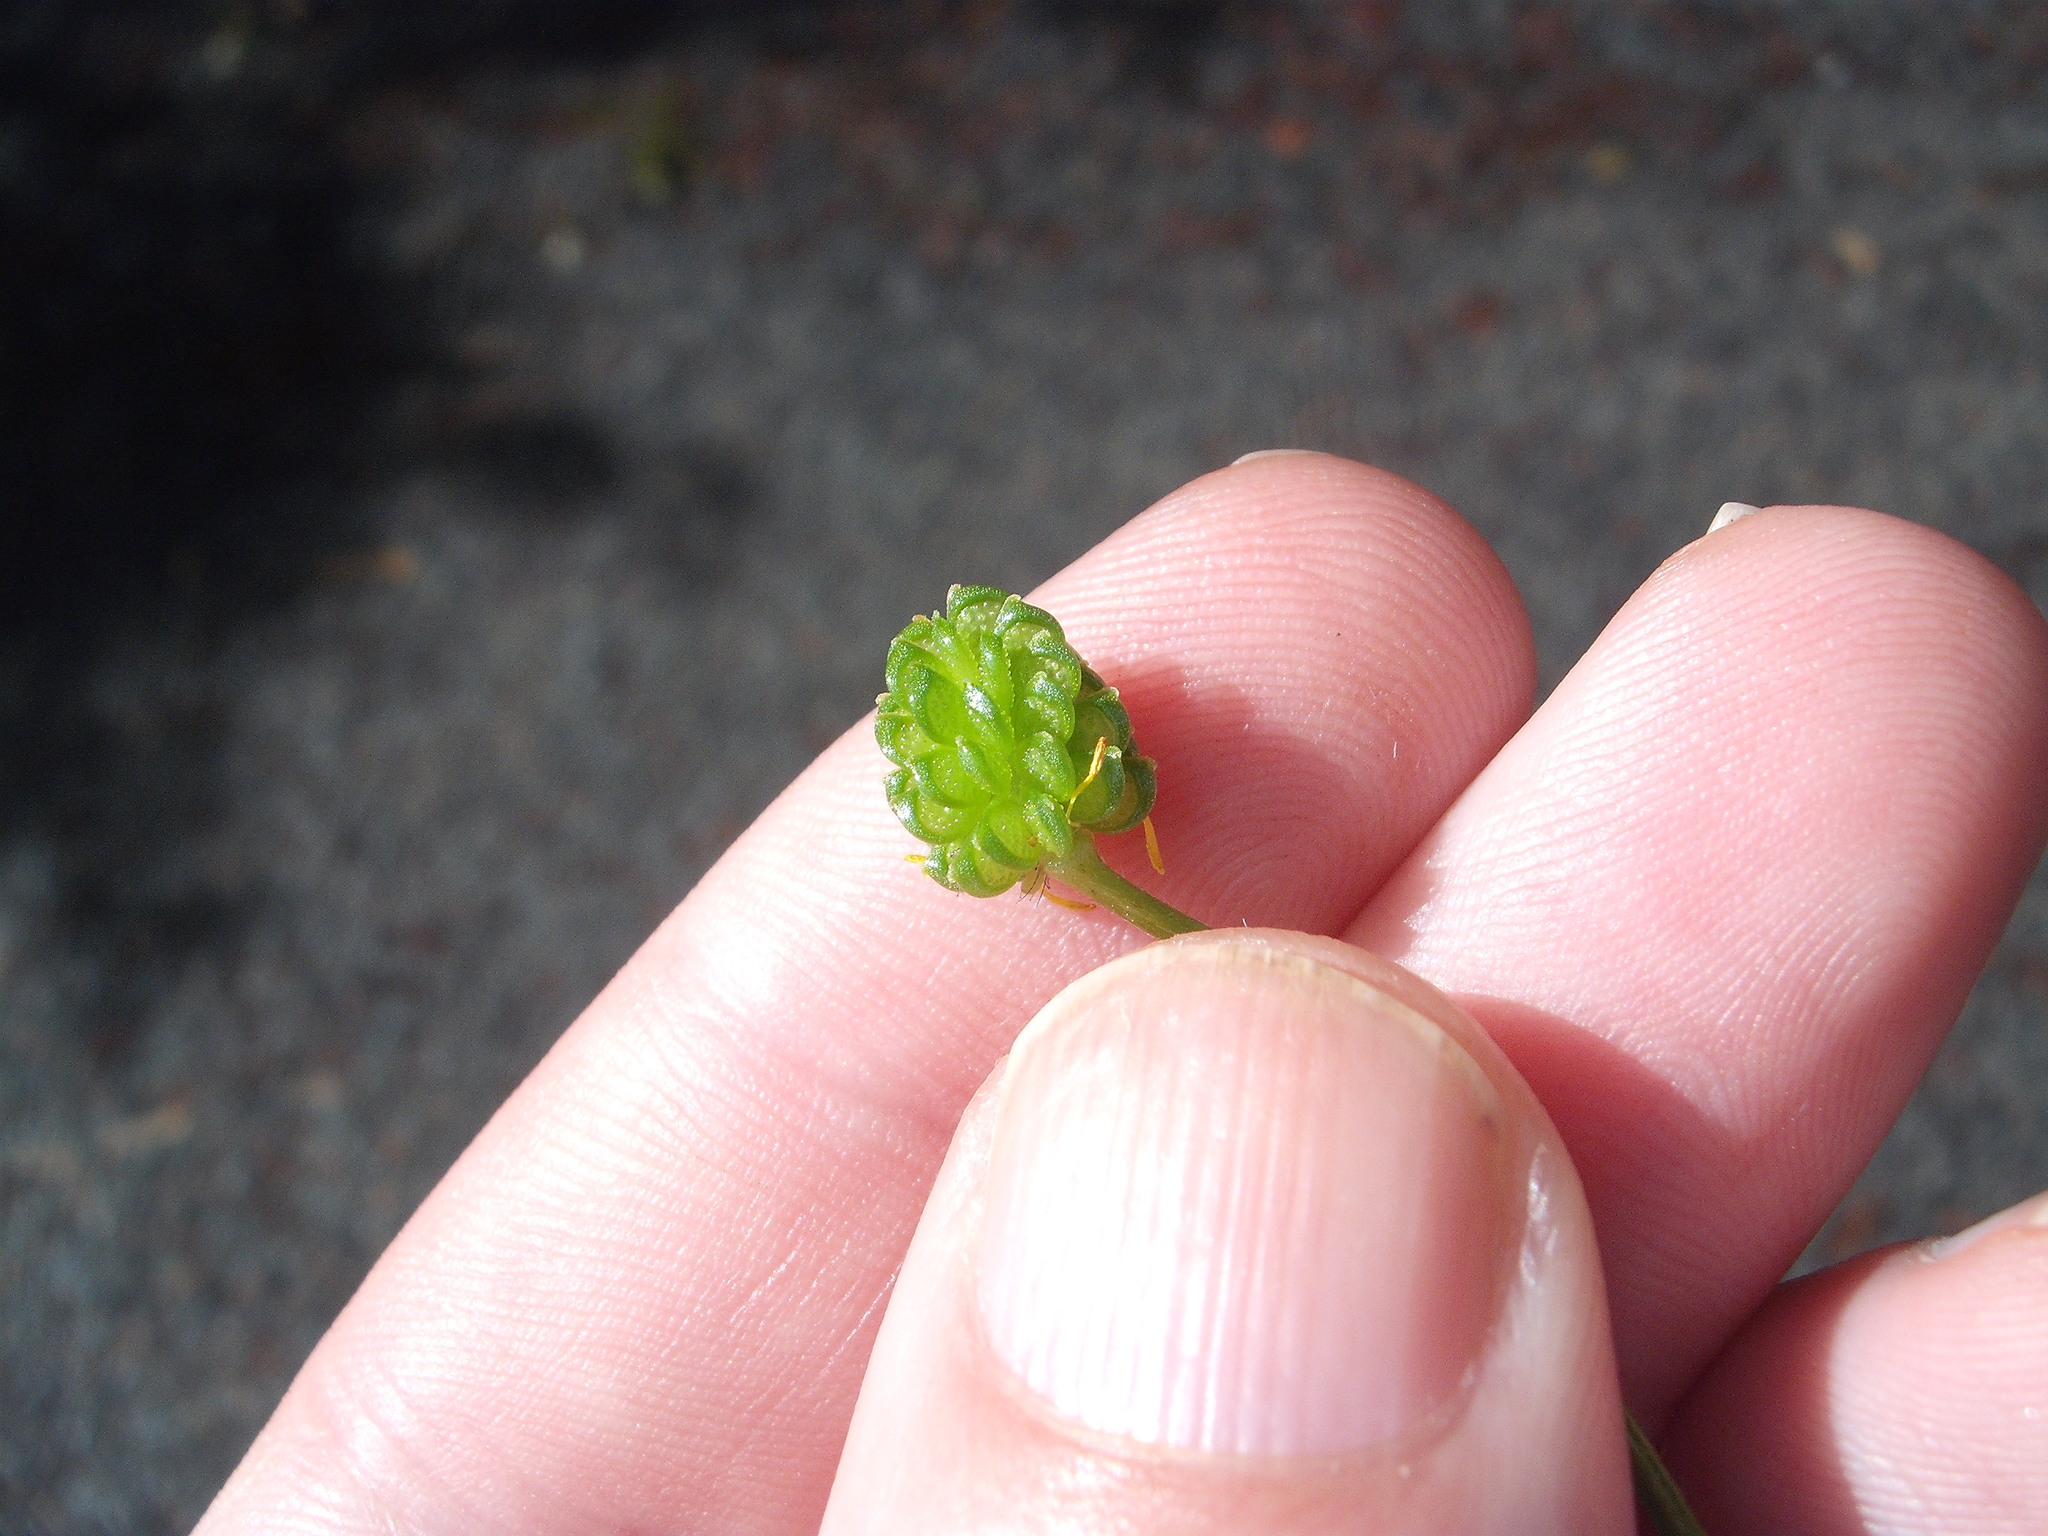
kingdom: Plantae
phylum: Tracheophyta
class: Magnoliopsida
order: Ranunculales
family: Ranunculaceae
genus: Ranunculus
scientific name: Ranunculus trilobus
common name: Threelobe buttercup
